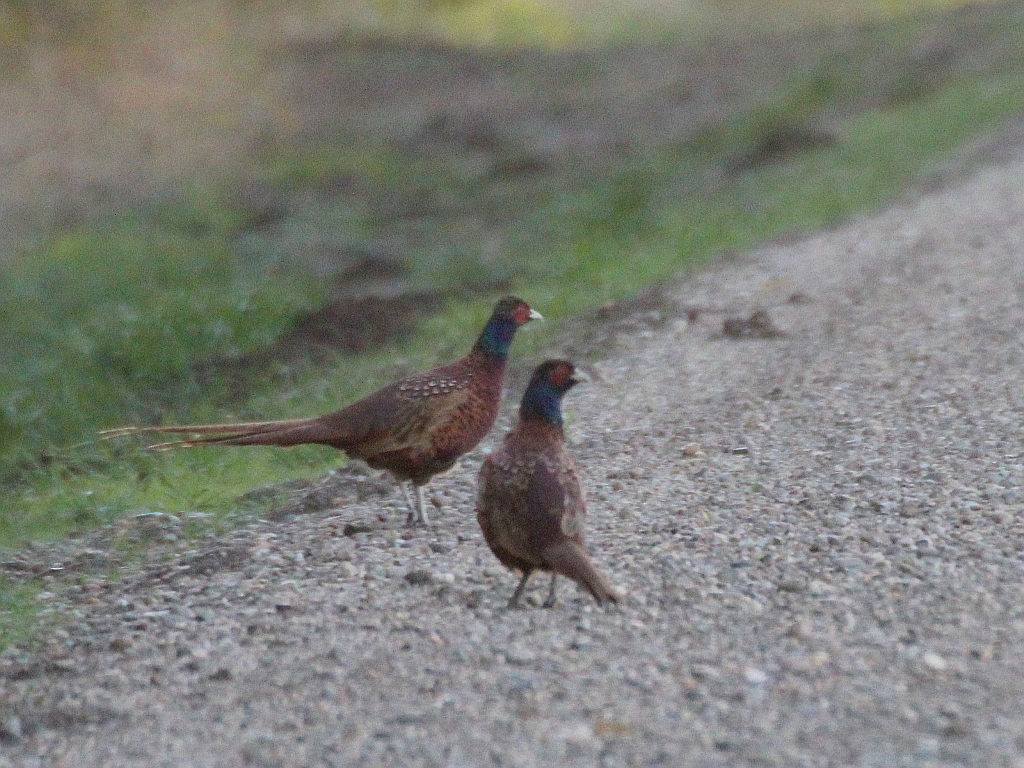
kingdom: Animalia
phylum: Chordata
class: Aves
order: Galliformes
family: Phasianidae
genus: Phasianus
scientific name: Phasianus colchicus
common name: Common pheasant
